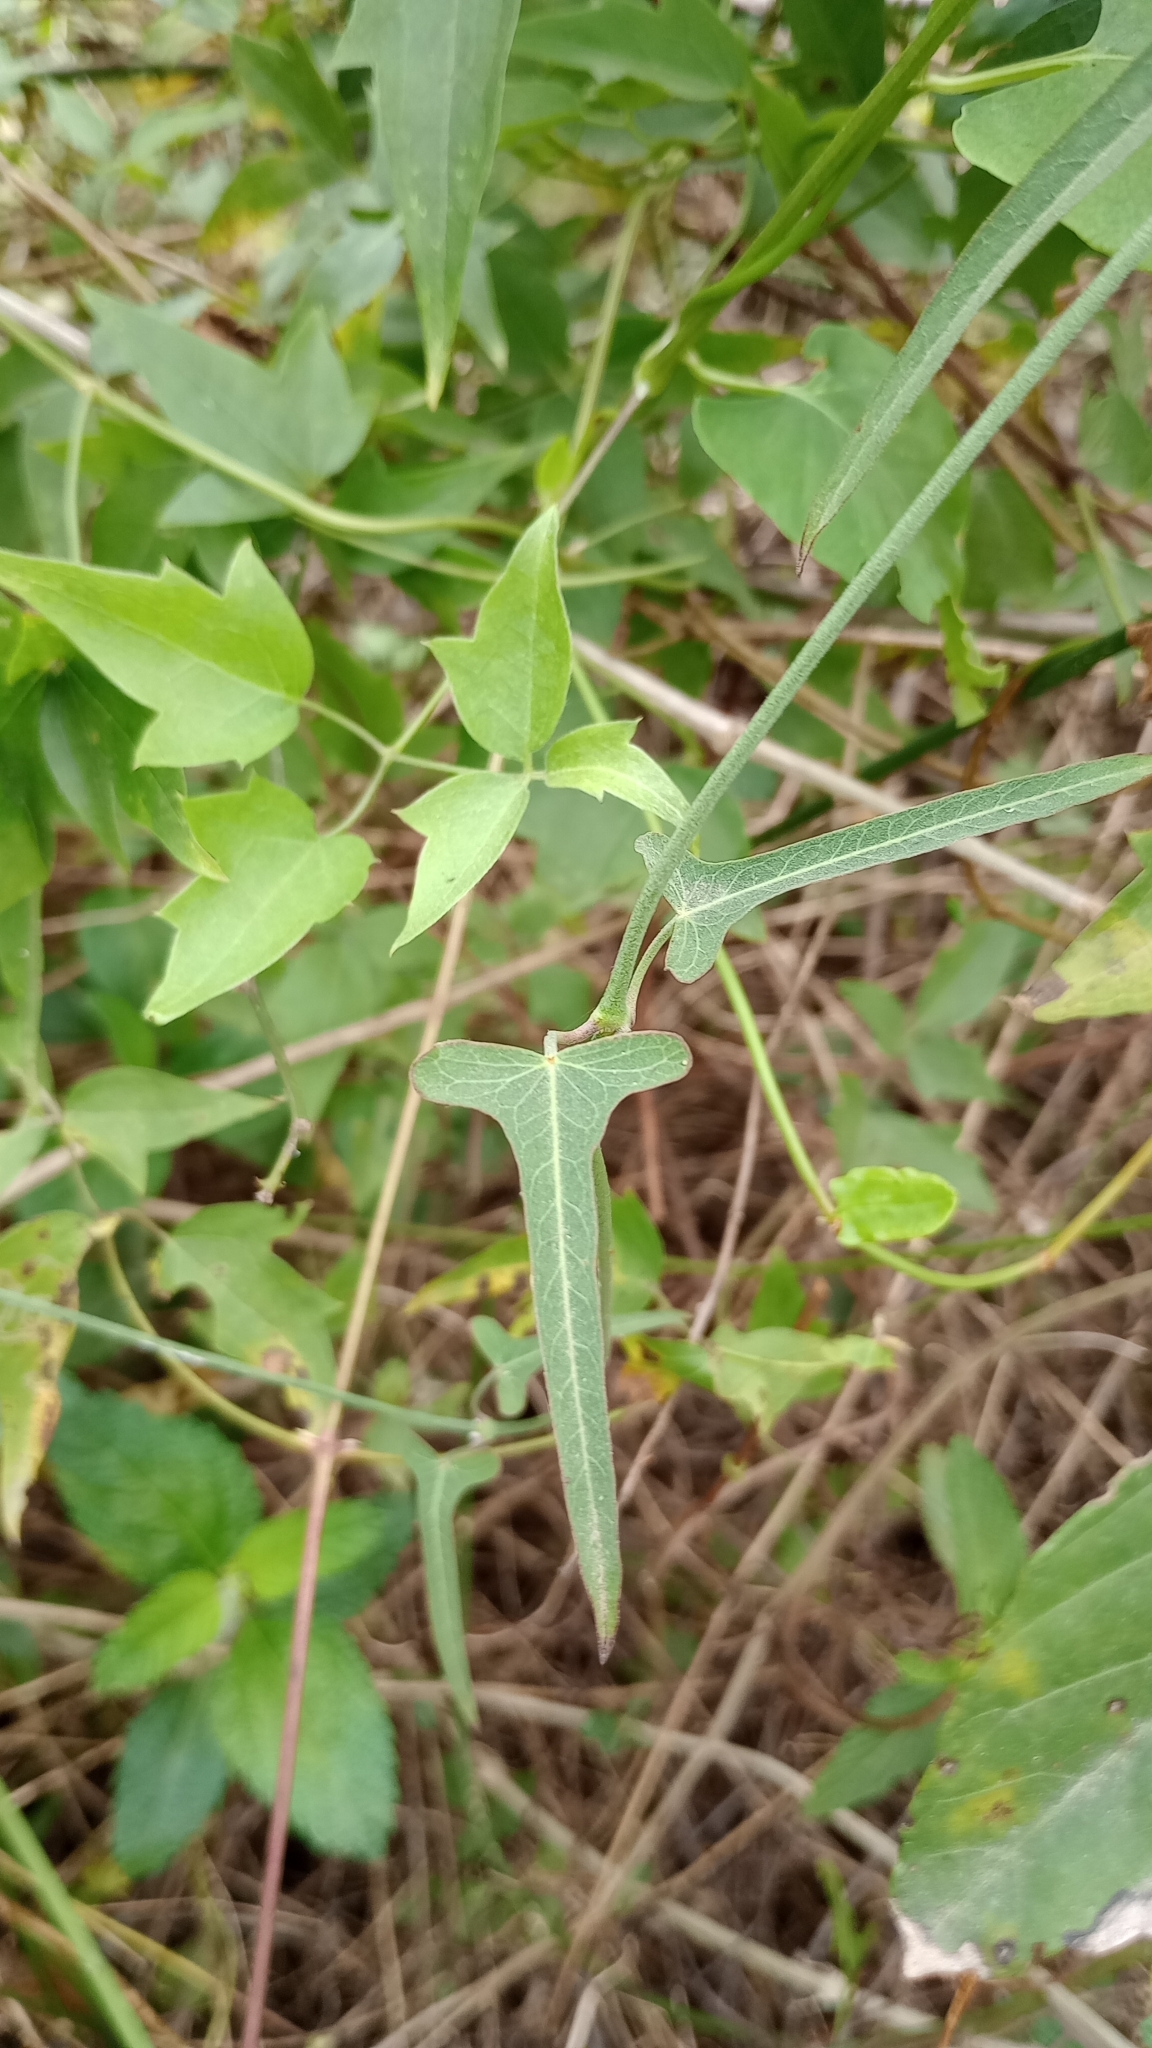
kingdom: Plantae
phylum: Tracheophyta
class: Magnoliopsida
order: Gentianales
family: Apocynaceae
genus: Araujia
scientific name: Araujia angustifolia
